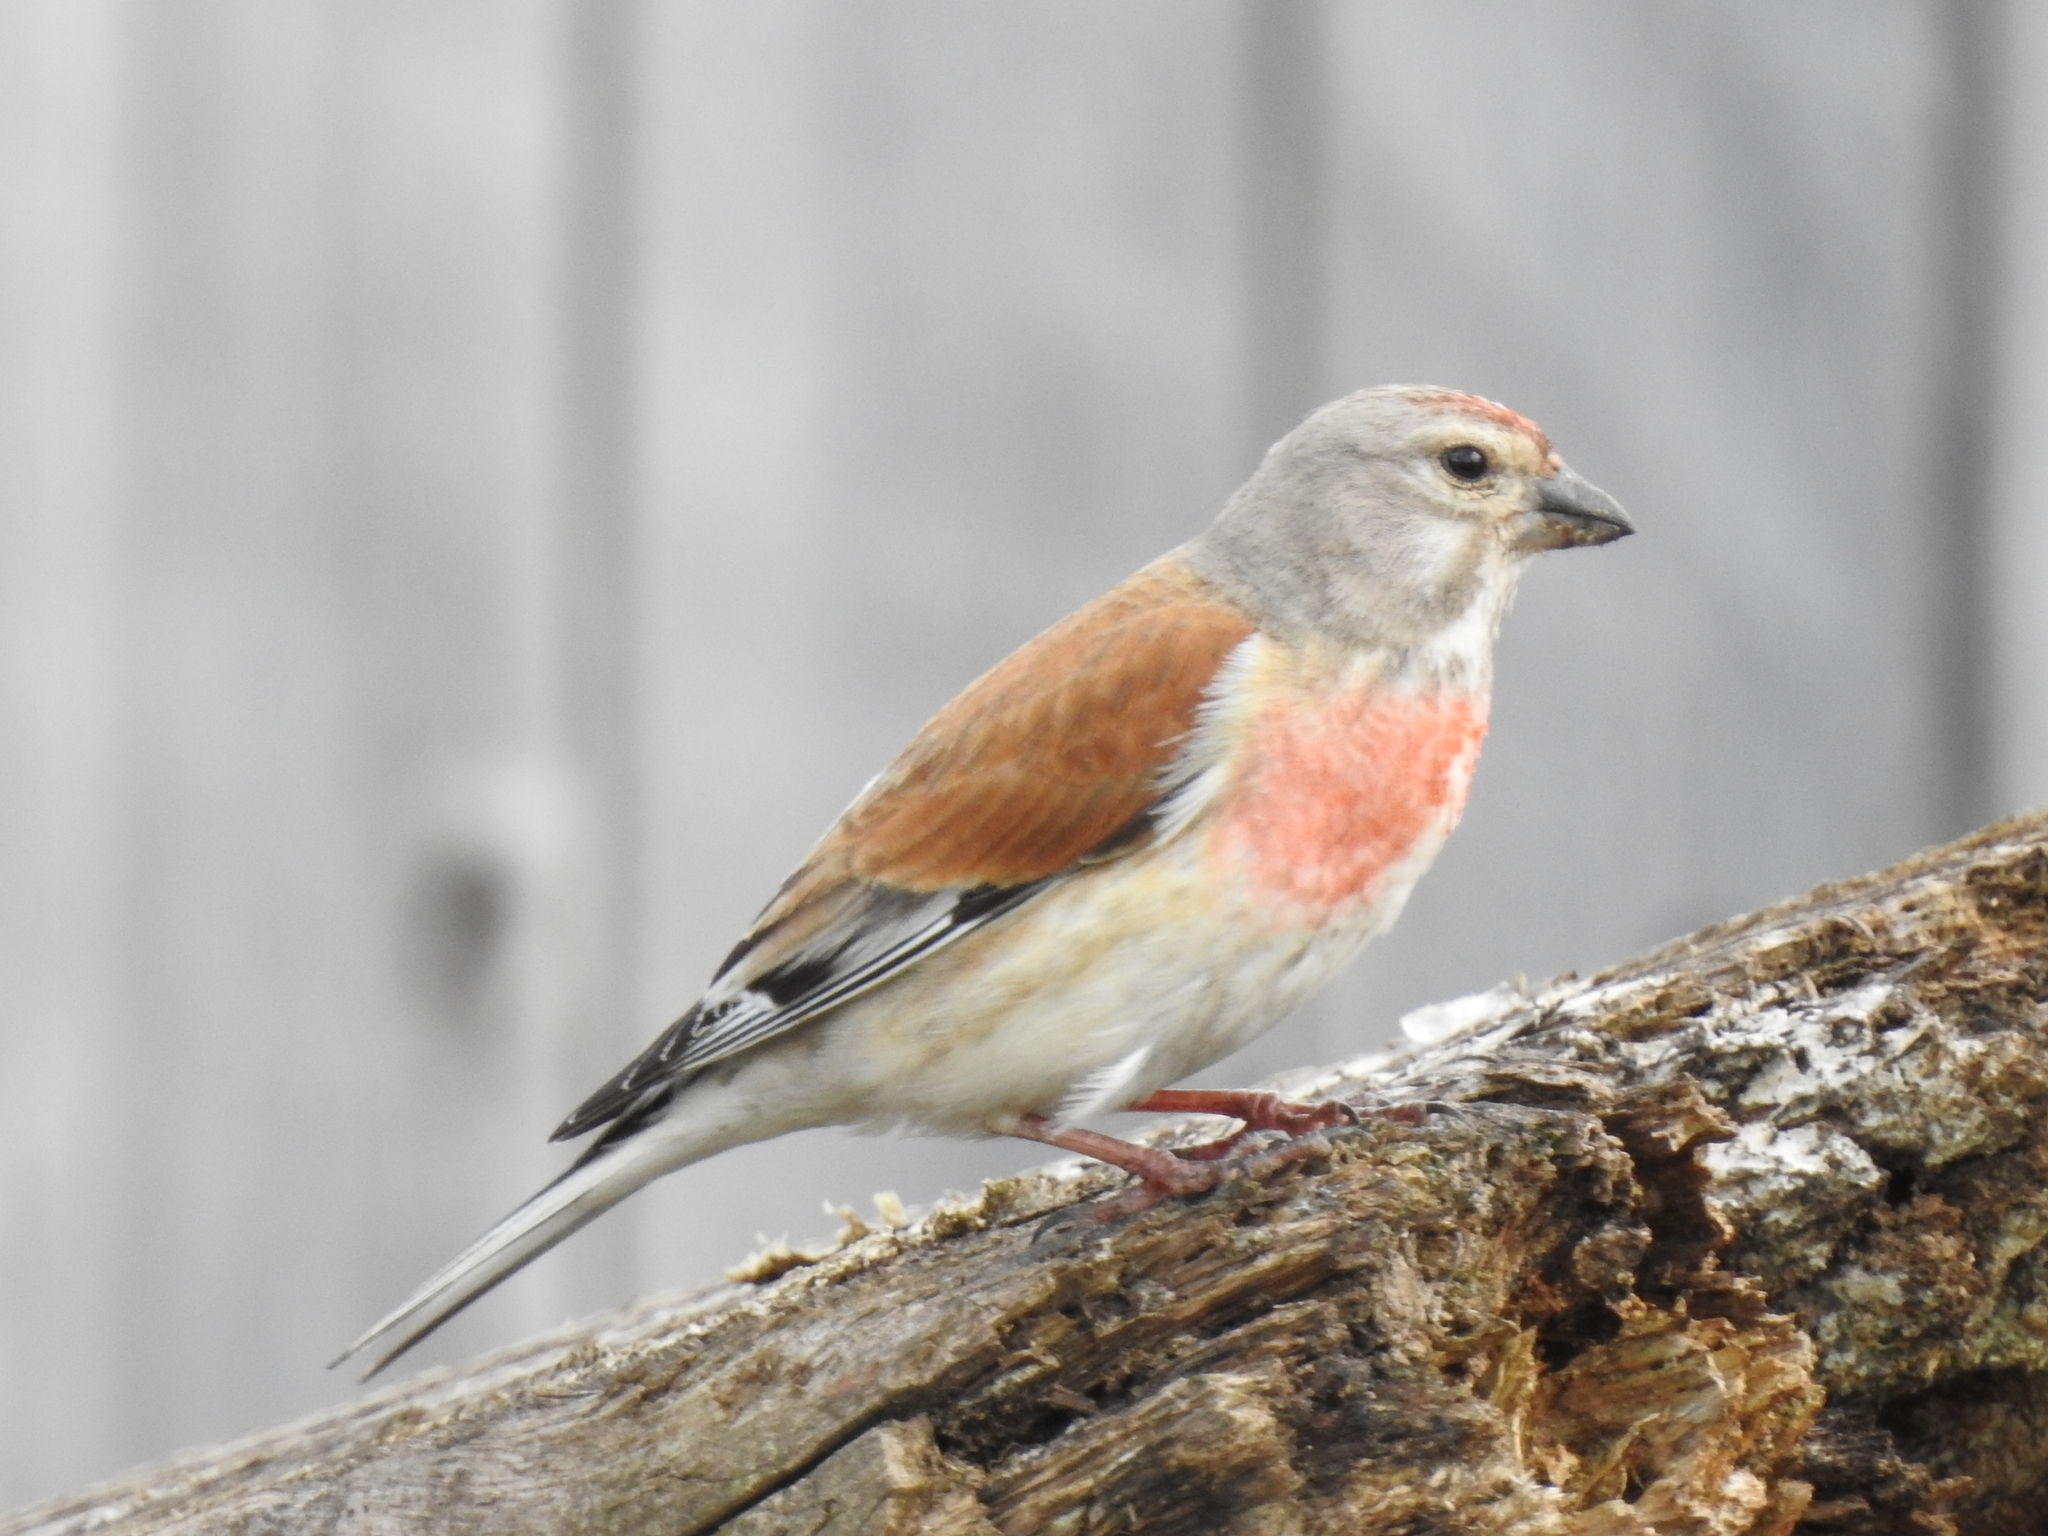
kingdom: Animalia
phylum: Chordata
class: Aves
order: Passeriformes
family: Fringillidae
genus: Linaria
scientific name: Linaria cannabina
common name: Common linnet
